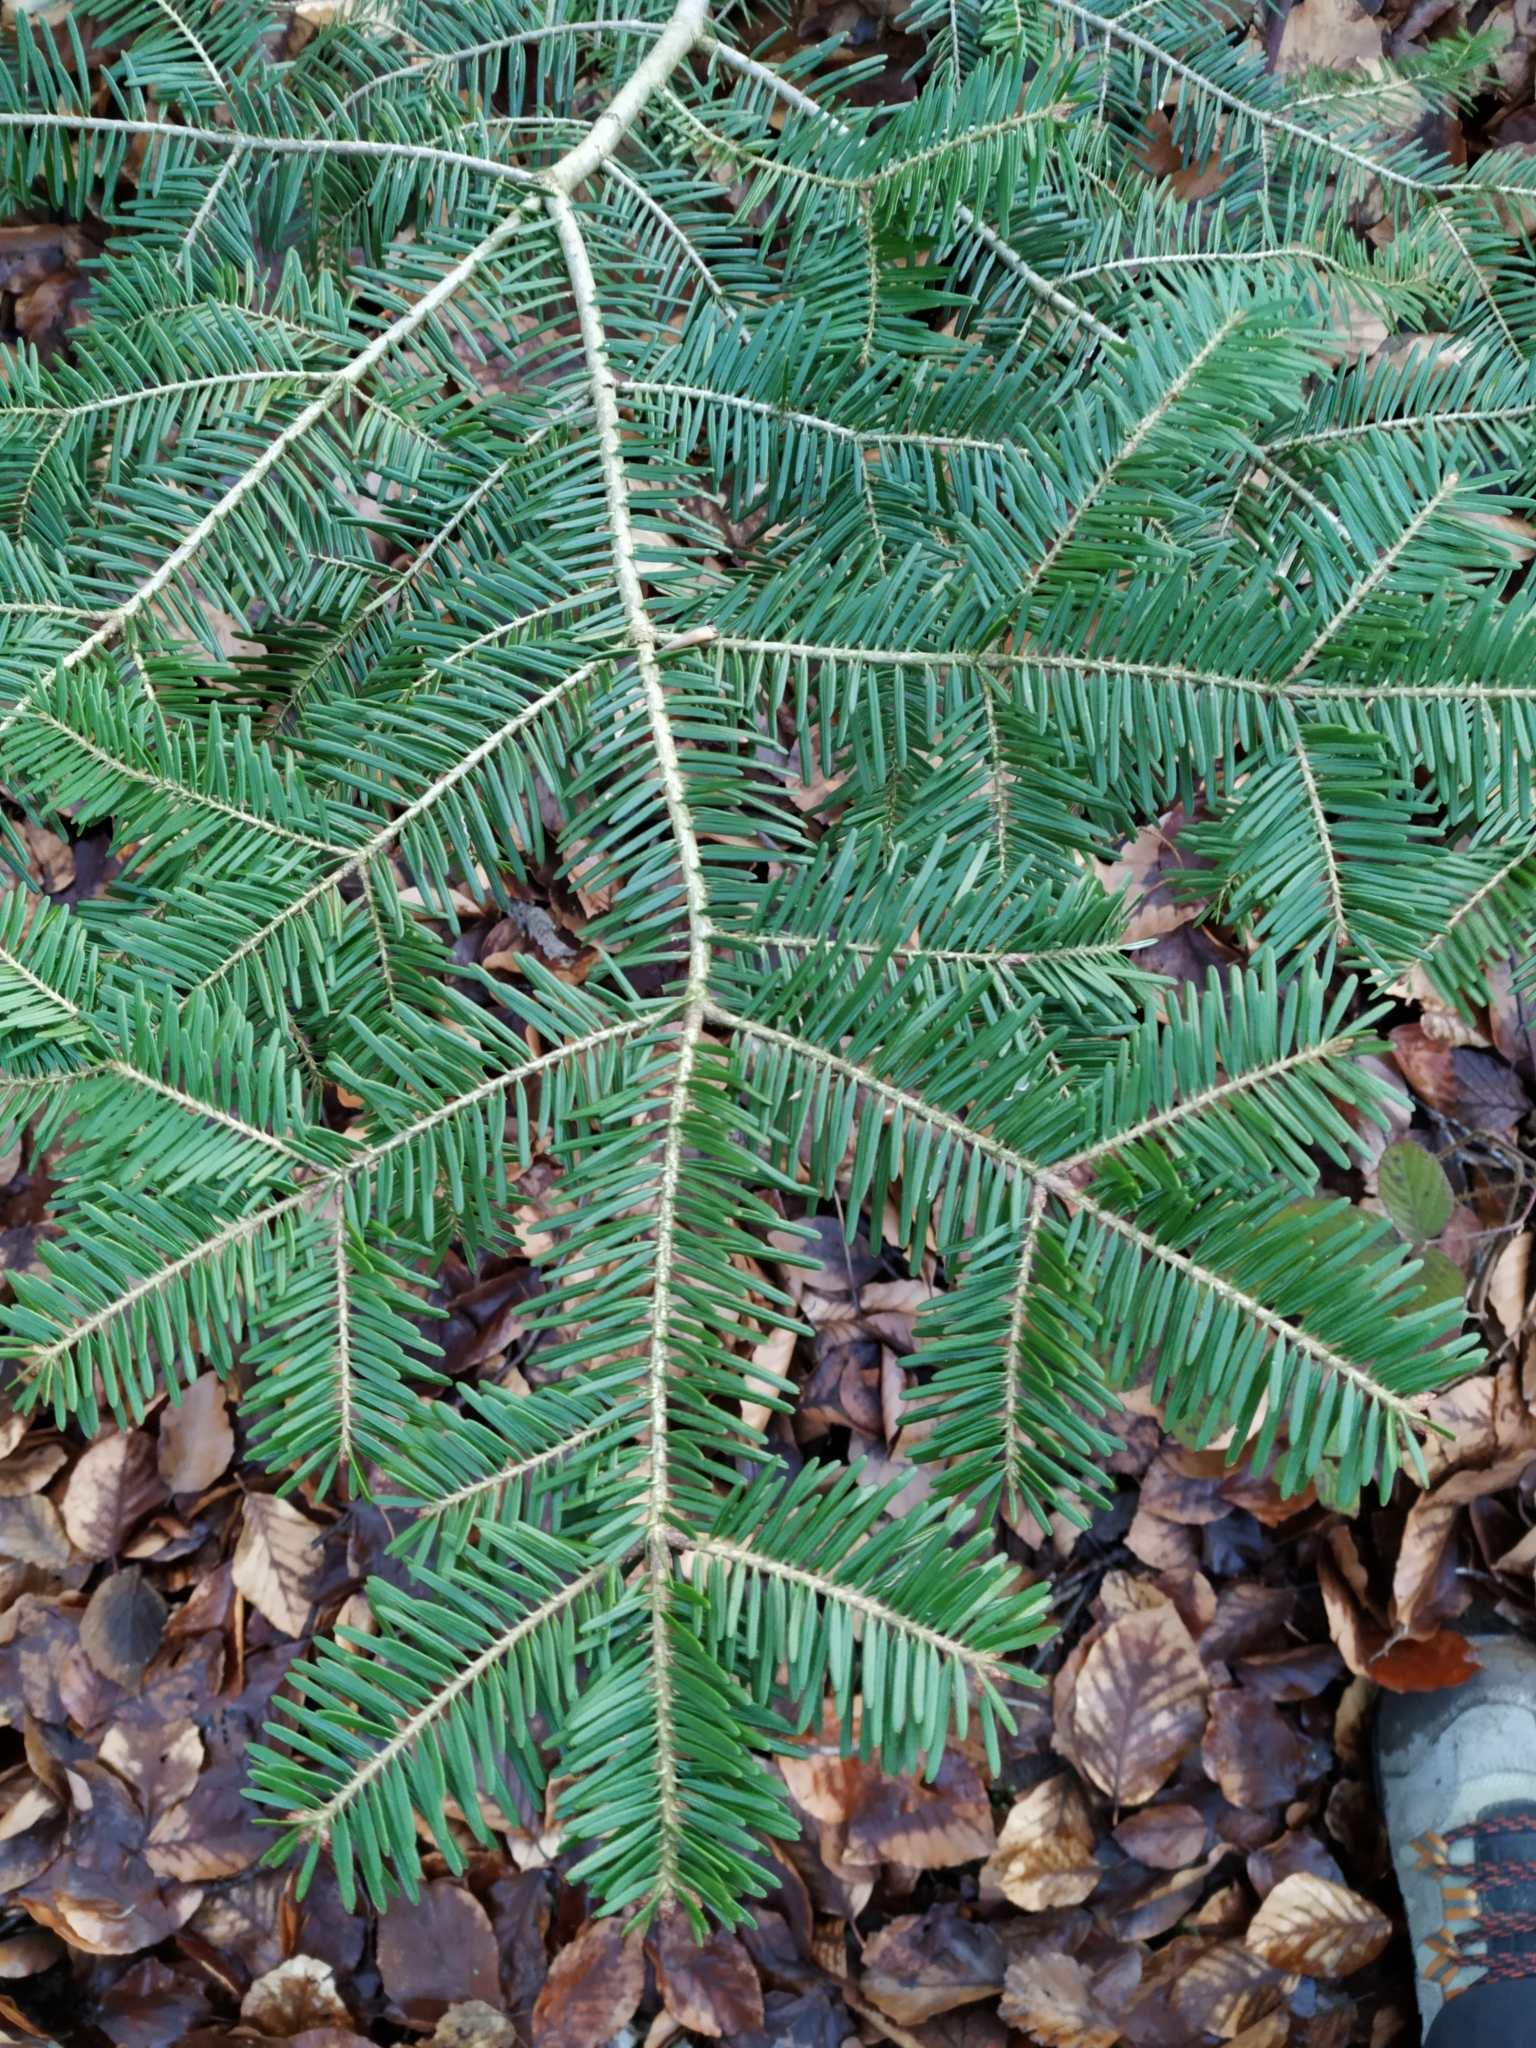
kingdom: Plantae
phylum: Tracheophyta
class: Pinopsida
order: Pinales
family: Pinaceae
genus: Abies
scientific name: Abies alba
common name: Silver fir
